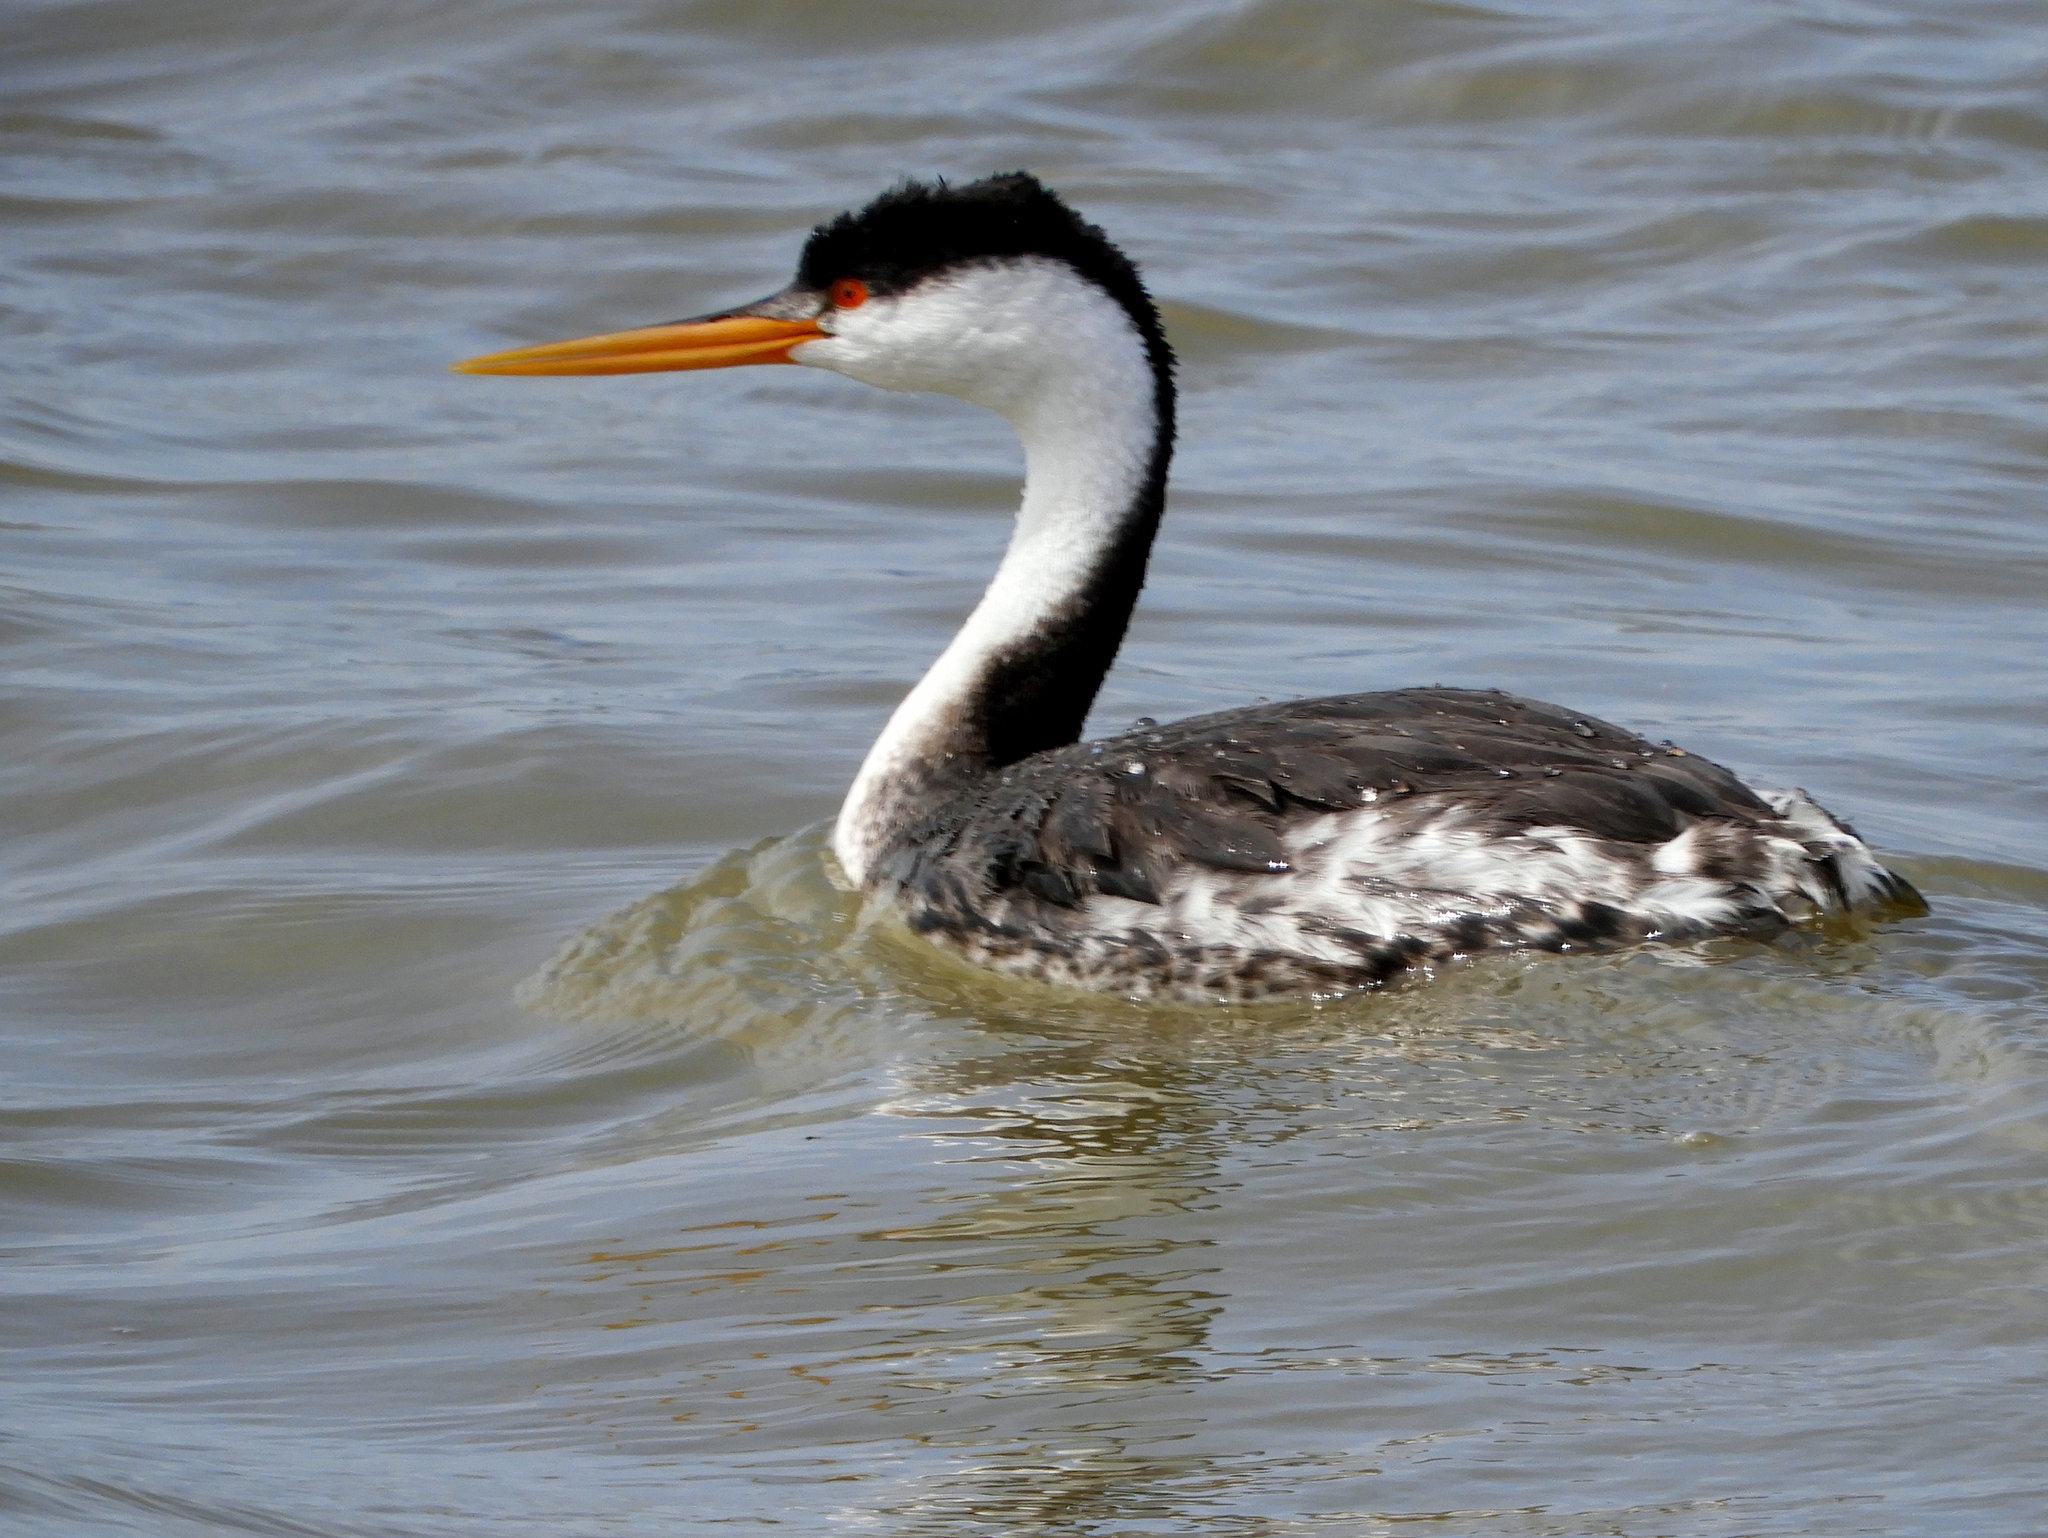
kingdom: Animalia
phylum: Chordata
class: Aves
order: Podicipediformes
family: Podicipedidae
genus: Aechmophorus
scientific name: Aechmophorus occidentalis
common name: Western grebe
